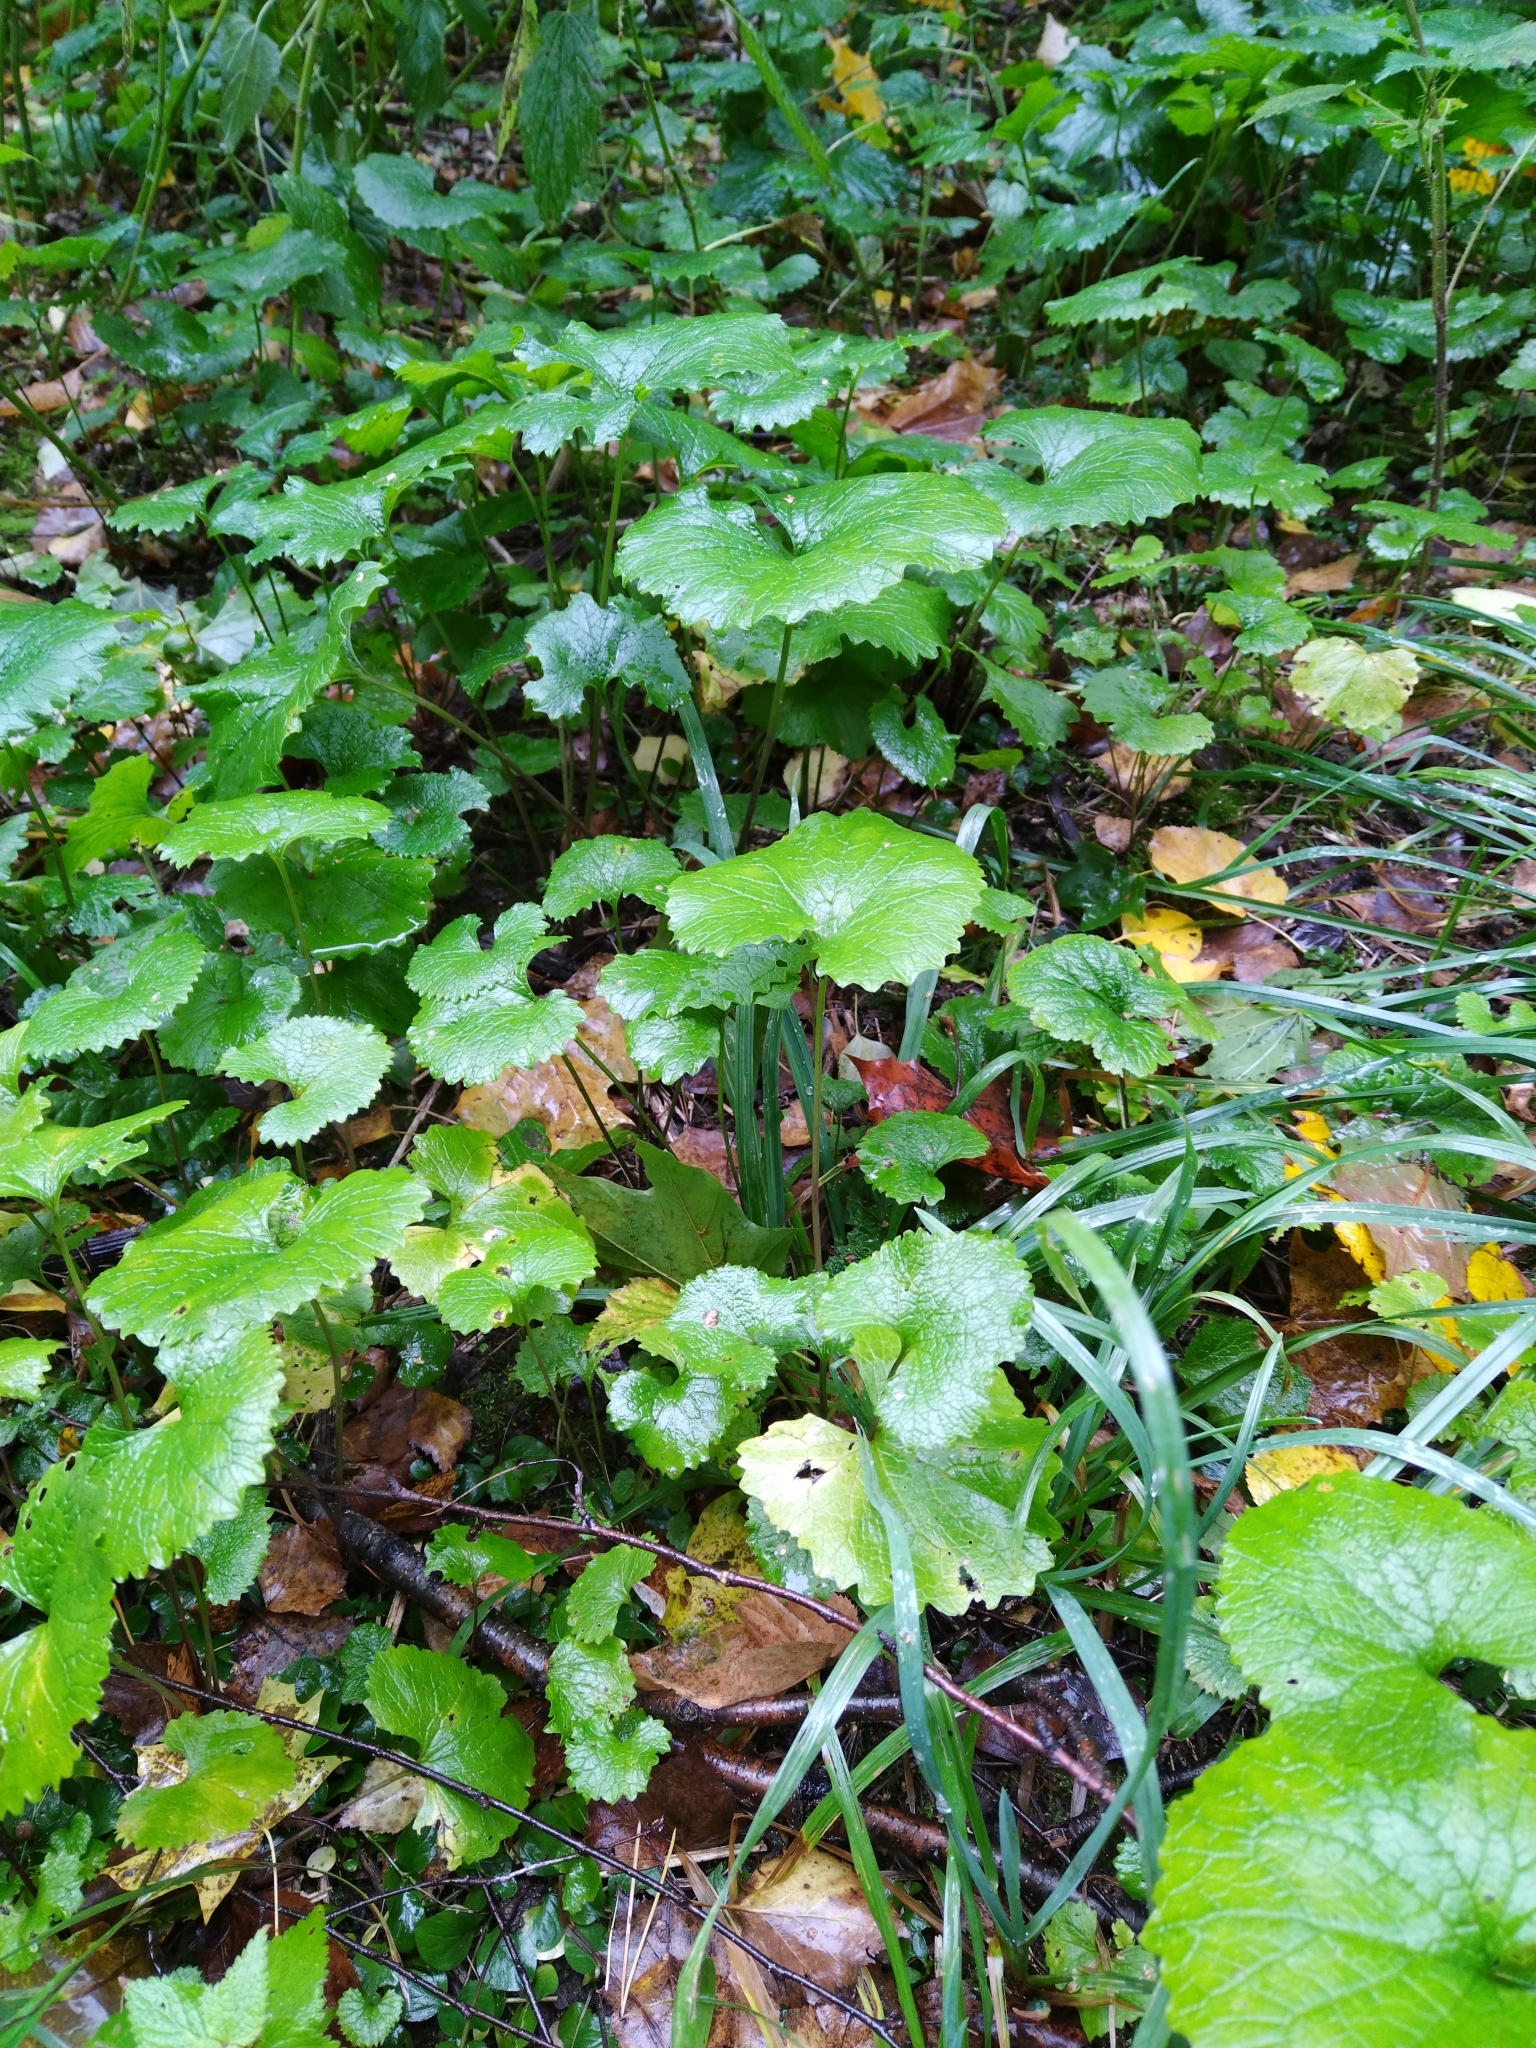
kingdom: Plantae
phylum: Tracheophyta
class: Magnoliopsida
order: Brassicales
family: Brassicaceae
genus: Alliaria
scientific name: Alliaria petiolata
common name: Garlic mustard
